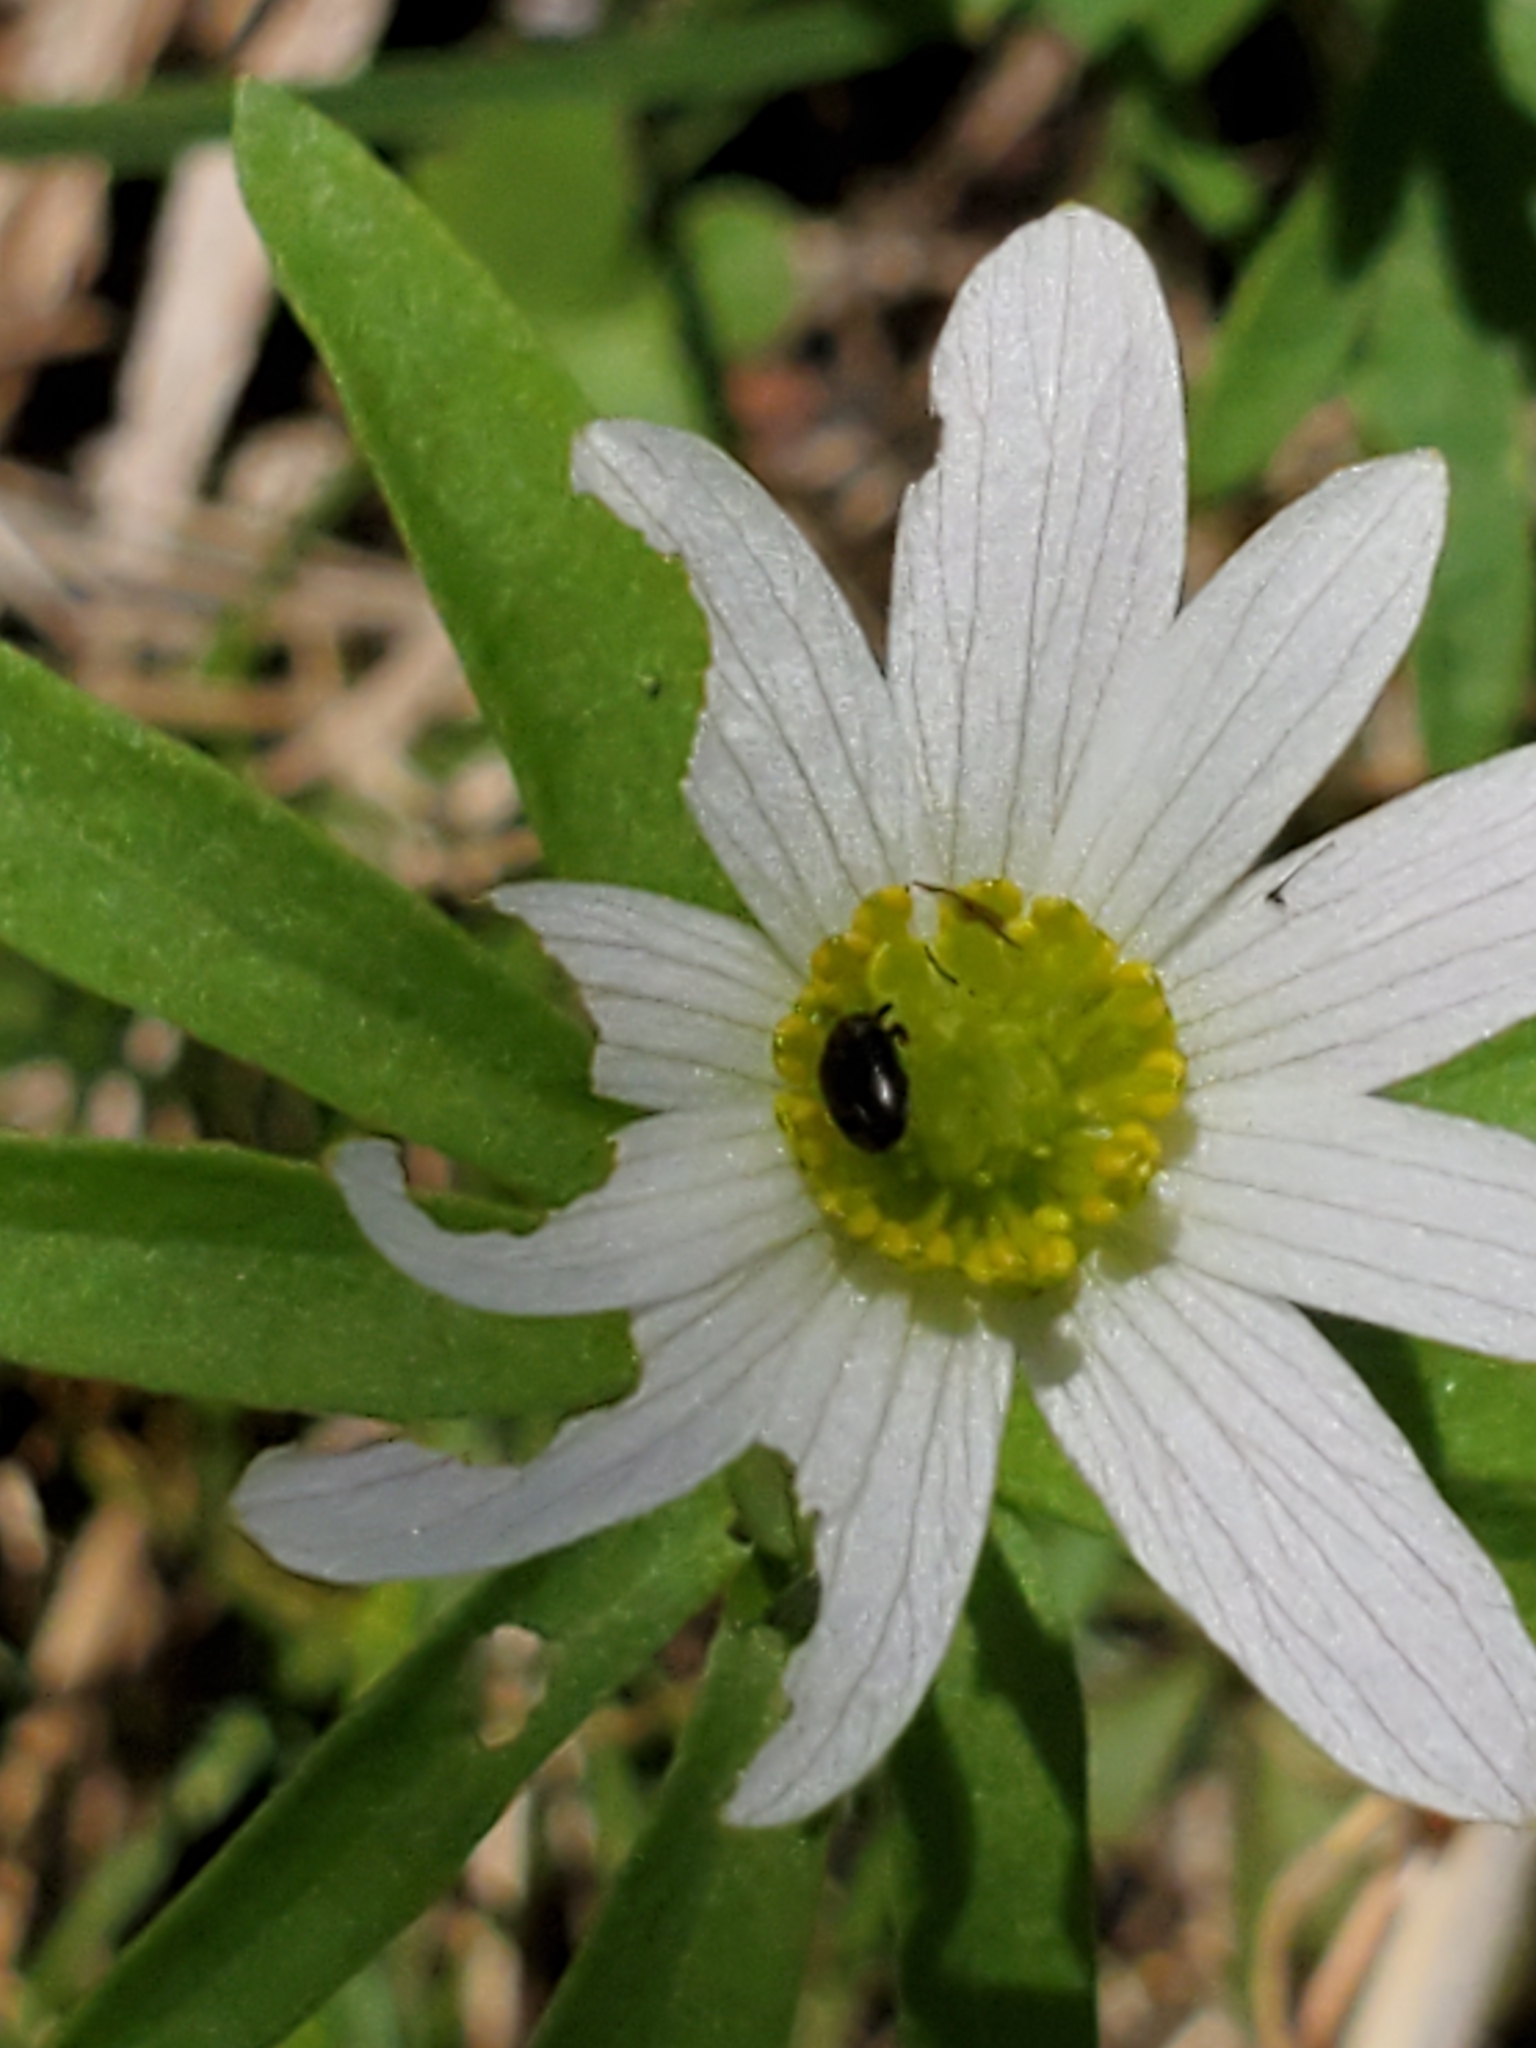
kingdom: Plantae
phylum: Tracheophyta
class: Magnoliopsida
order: Ranunculales
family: Ranunculaceae
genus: Anemone
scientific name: Anemone edwardsiana
